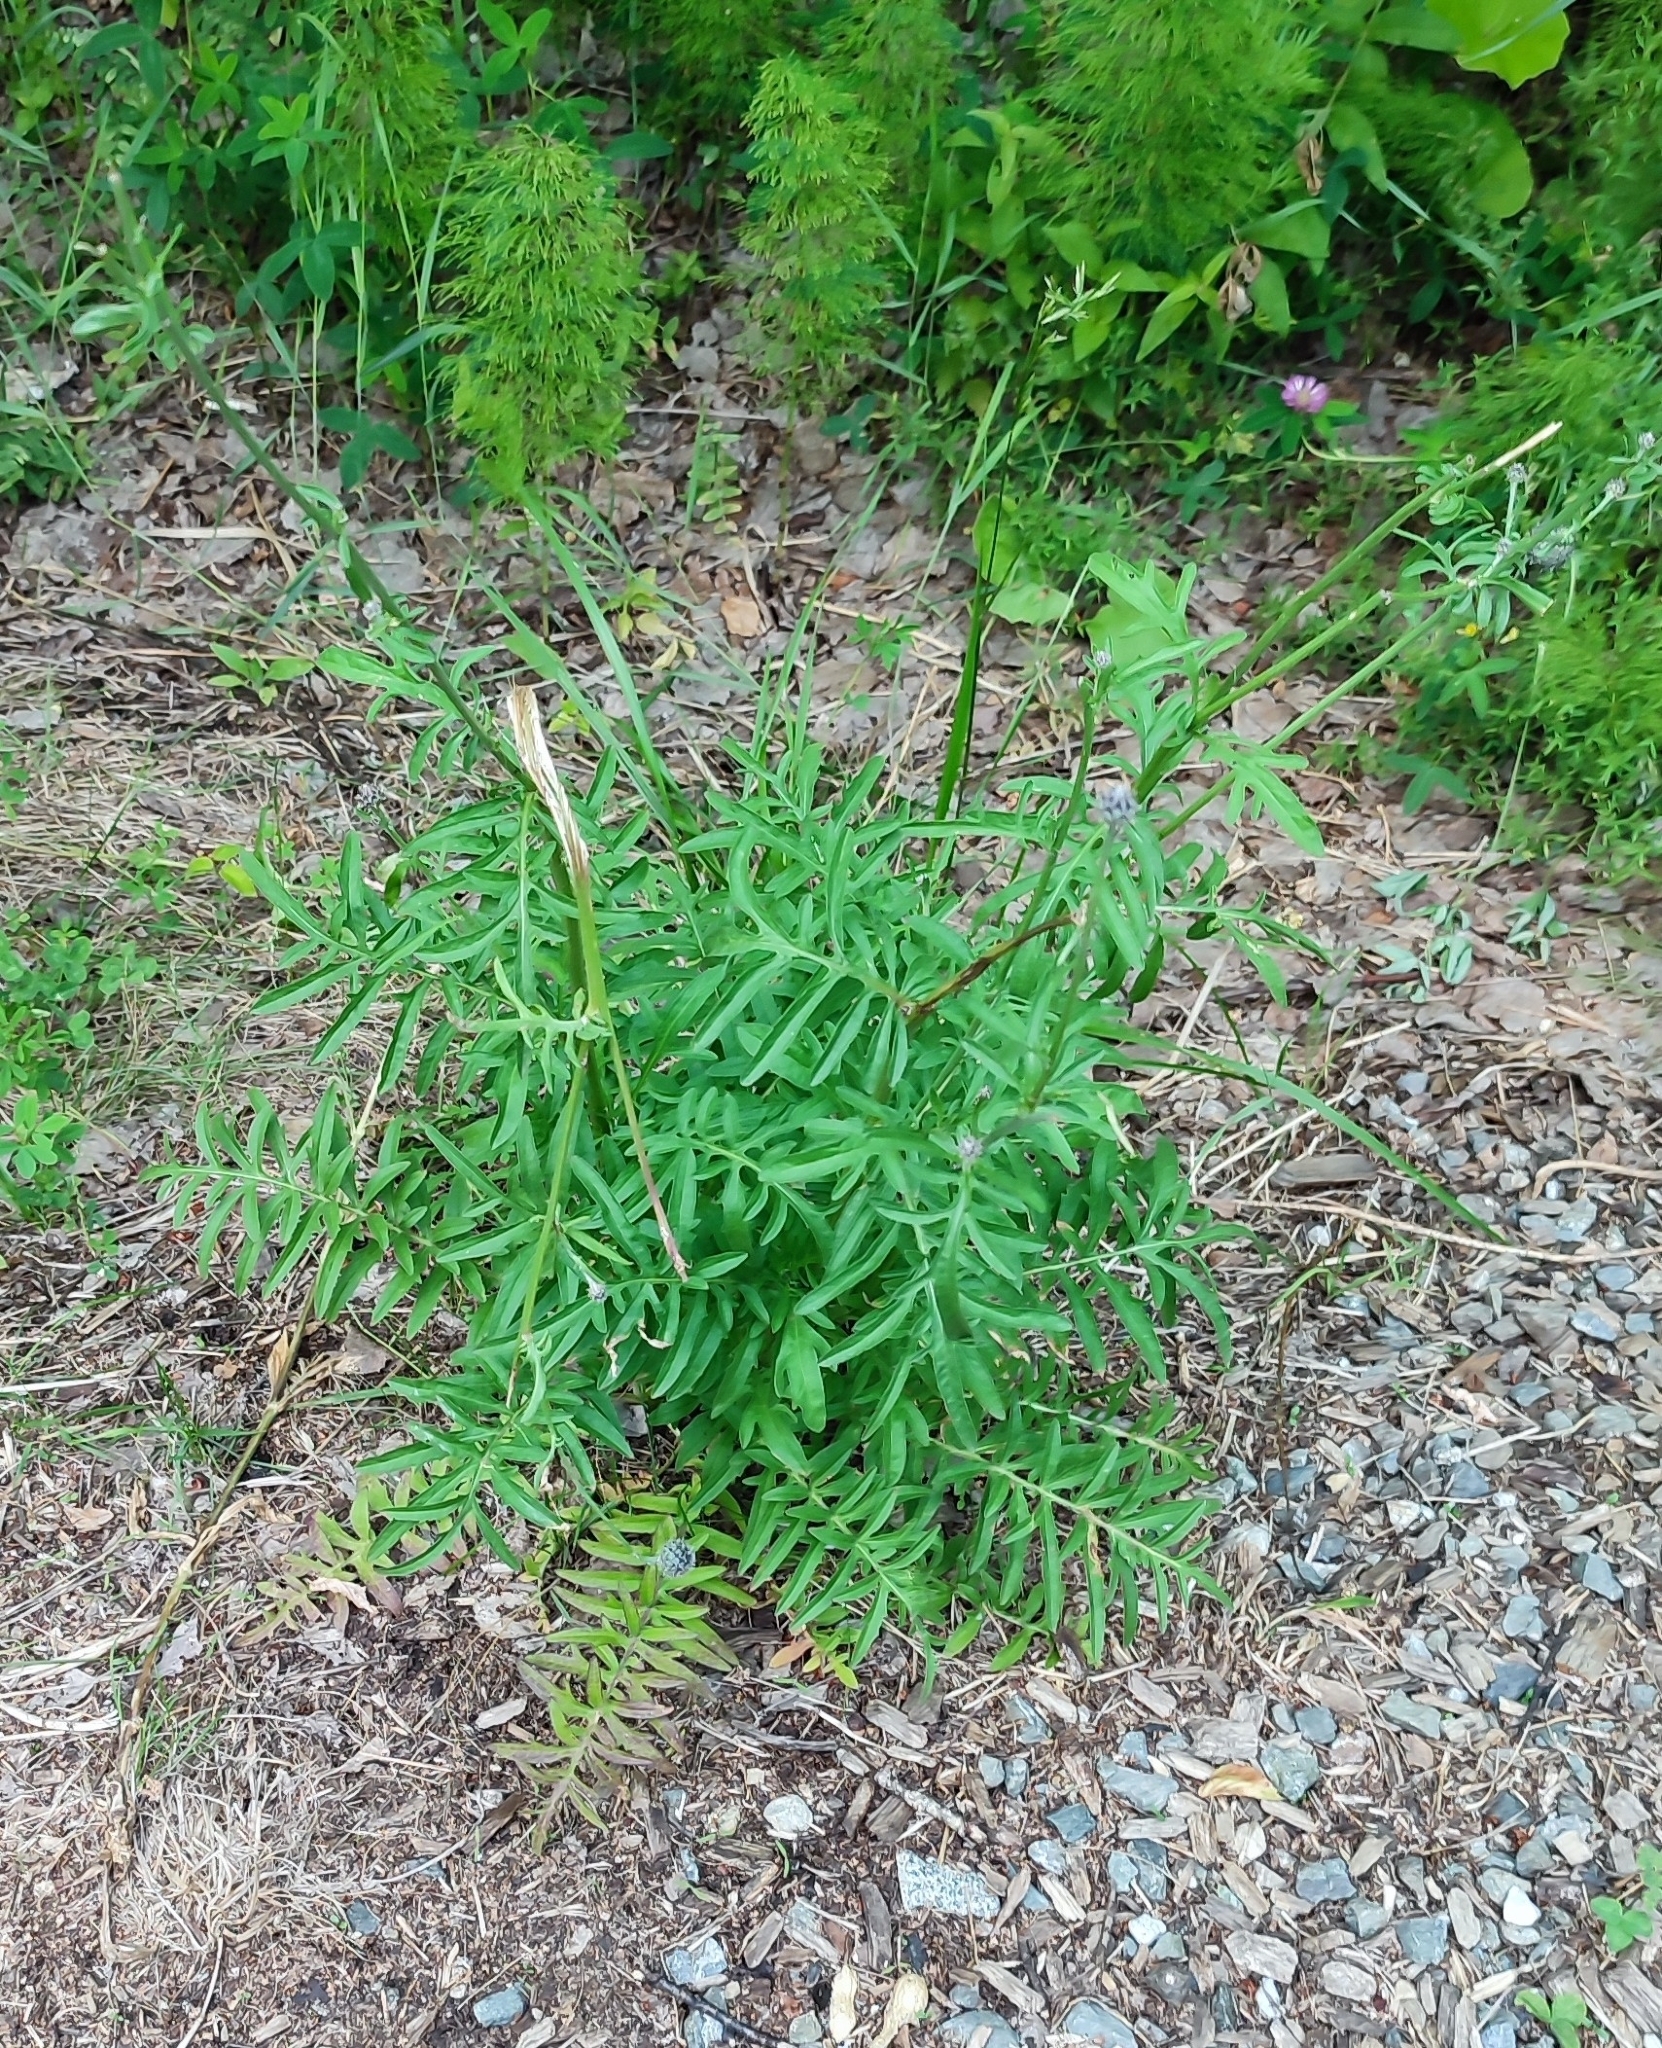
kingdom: Plantae
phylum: Tracheophyta
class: Magnoliopsida
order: Asterales
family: Asteraceae
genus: Centaurea
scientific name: Centaurea scabiosa
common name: Greater knapweed
